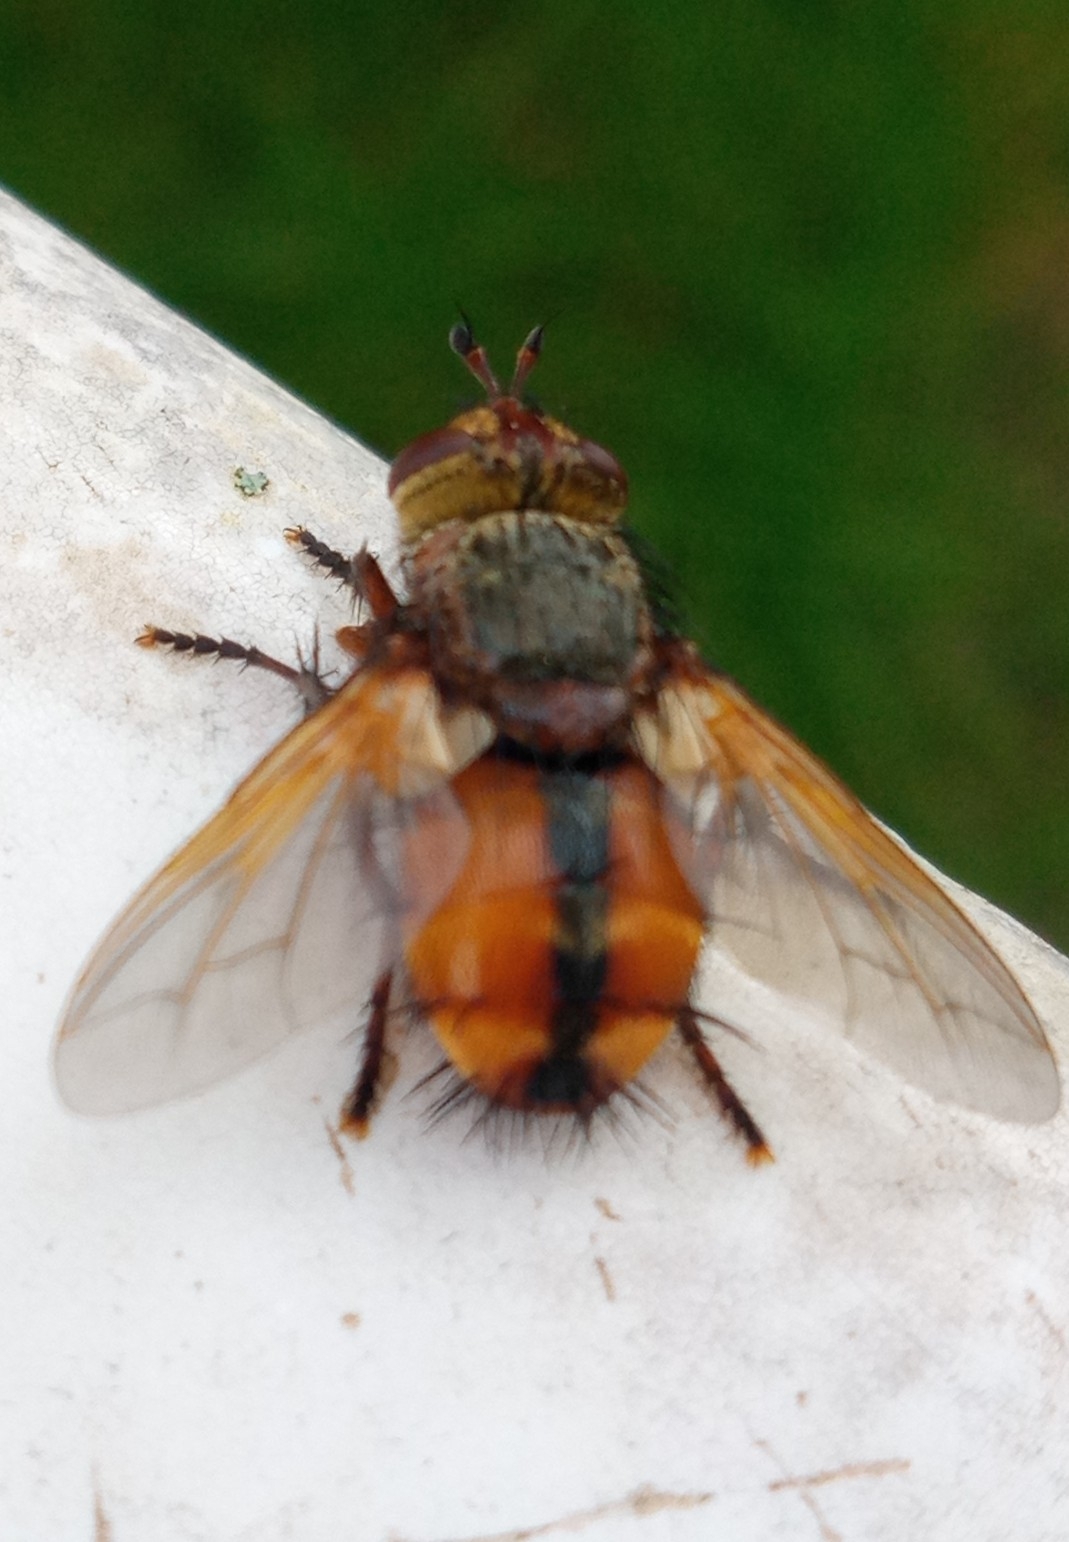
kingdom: Animalia
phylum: Arthropoda
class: Insecta
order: Diptera
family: Tachinidae
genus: Tachina
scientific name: Tachina fera
